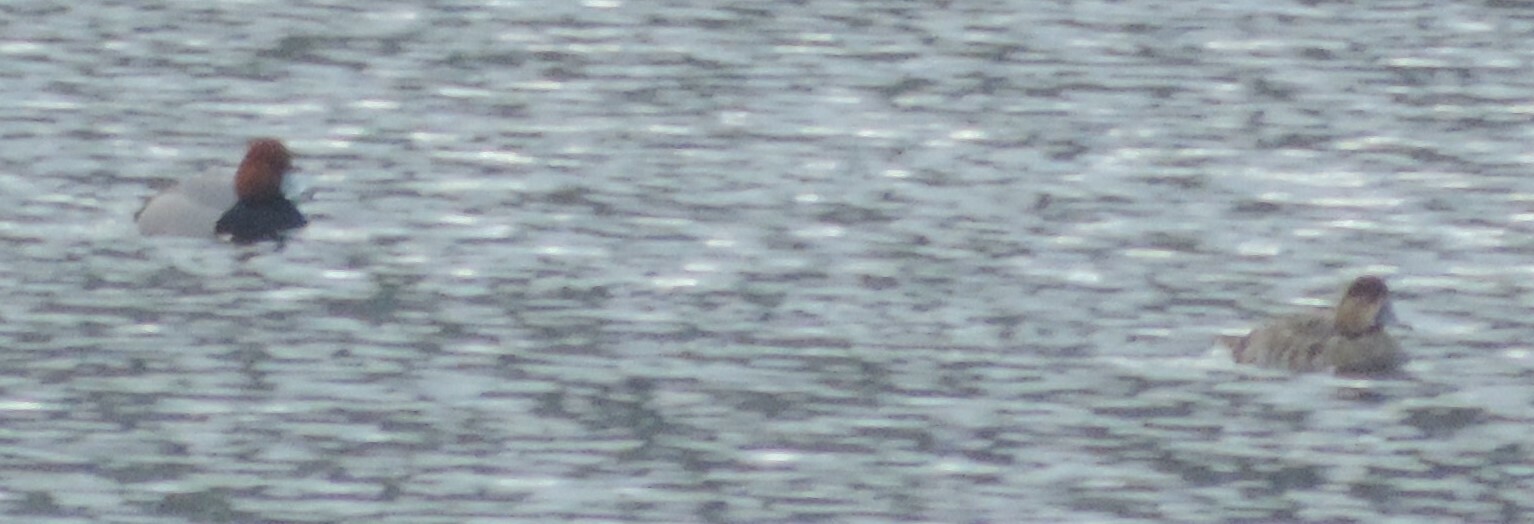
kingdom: Animalia
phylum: Chordata
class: Aves
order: Anseriformes
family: Anatidae
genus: Aythya
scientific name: Aythya americana
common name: Redhead
